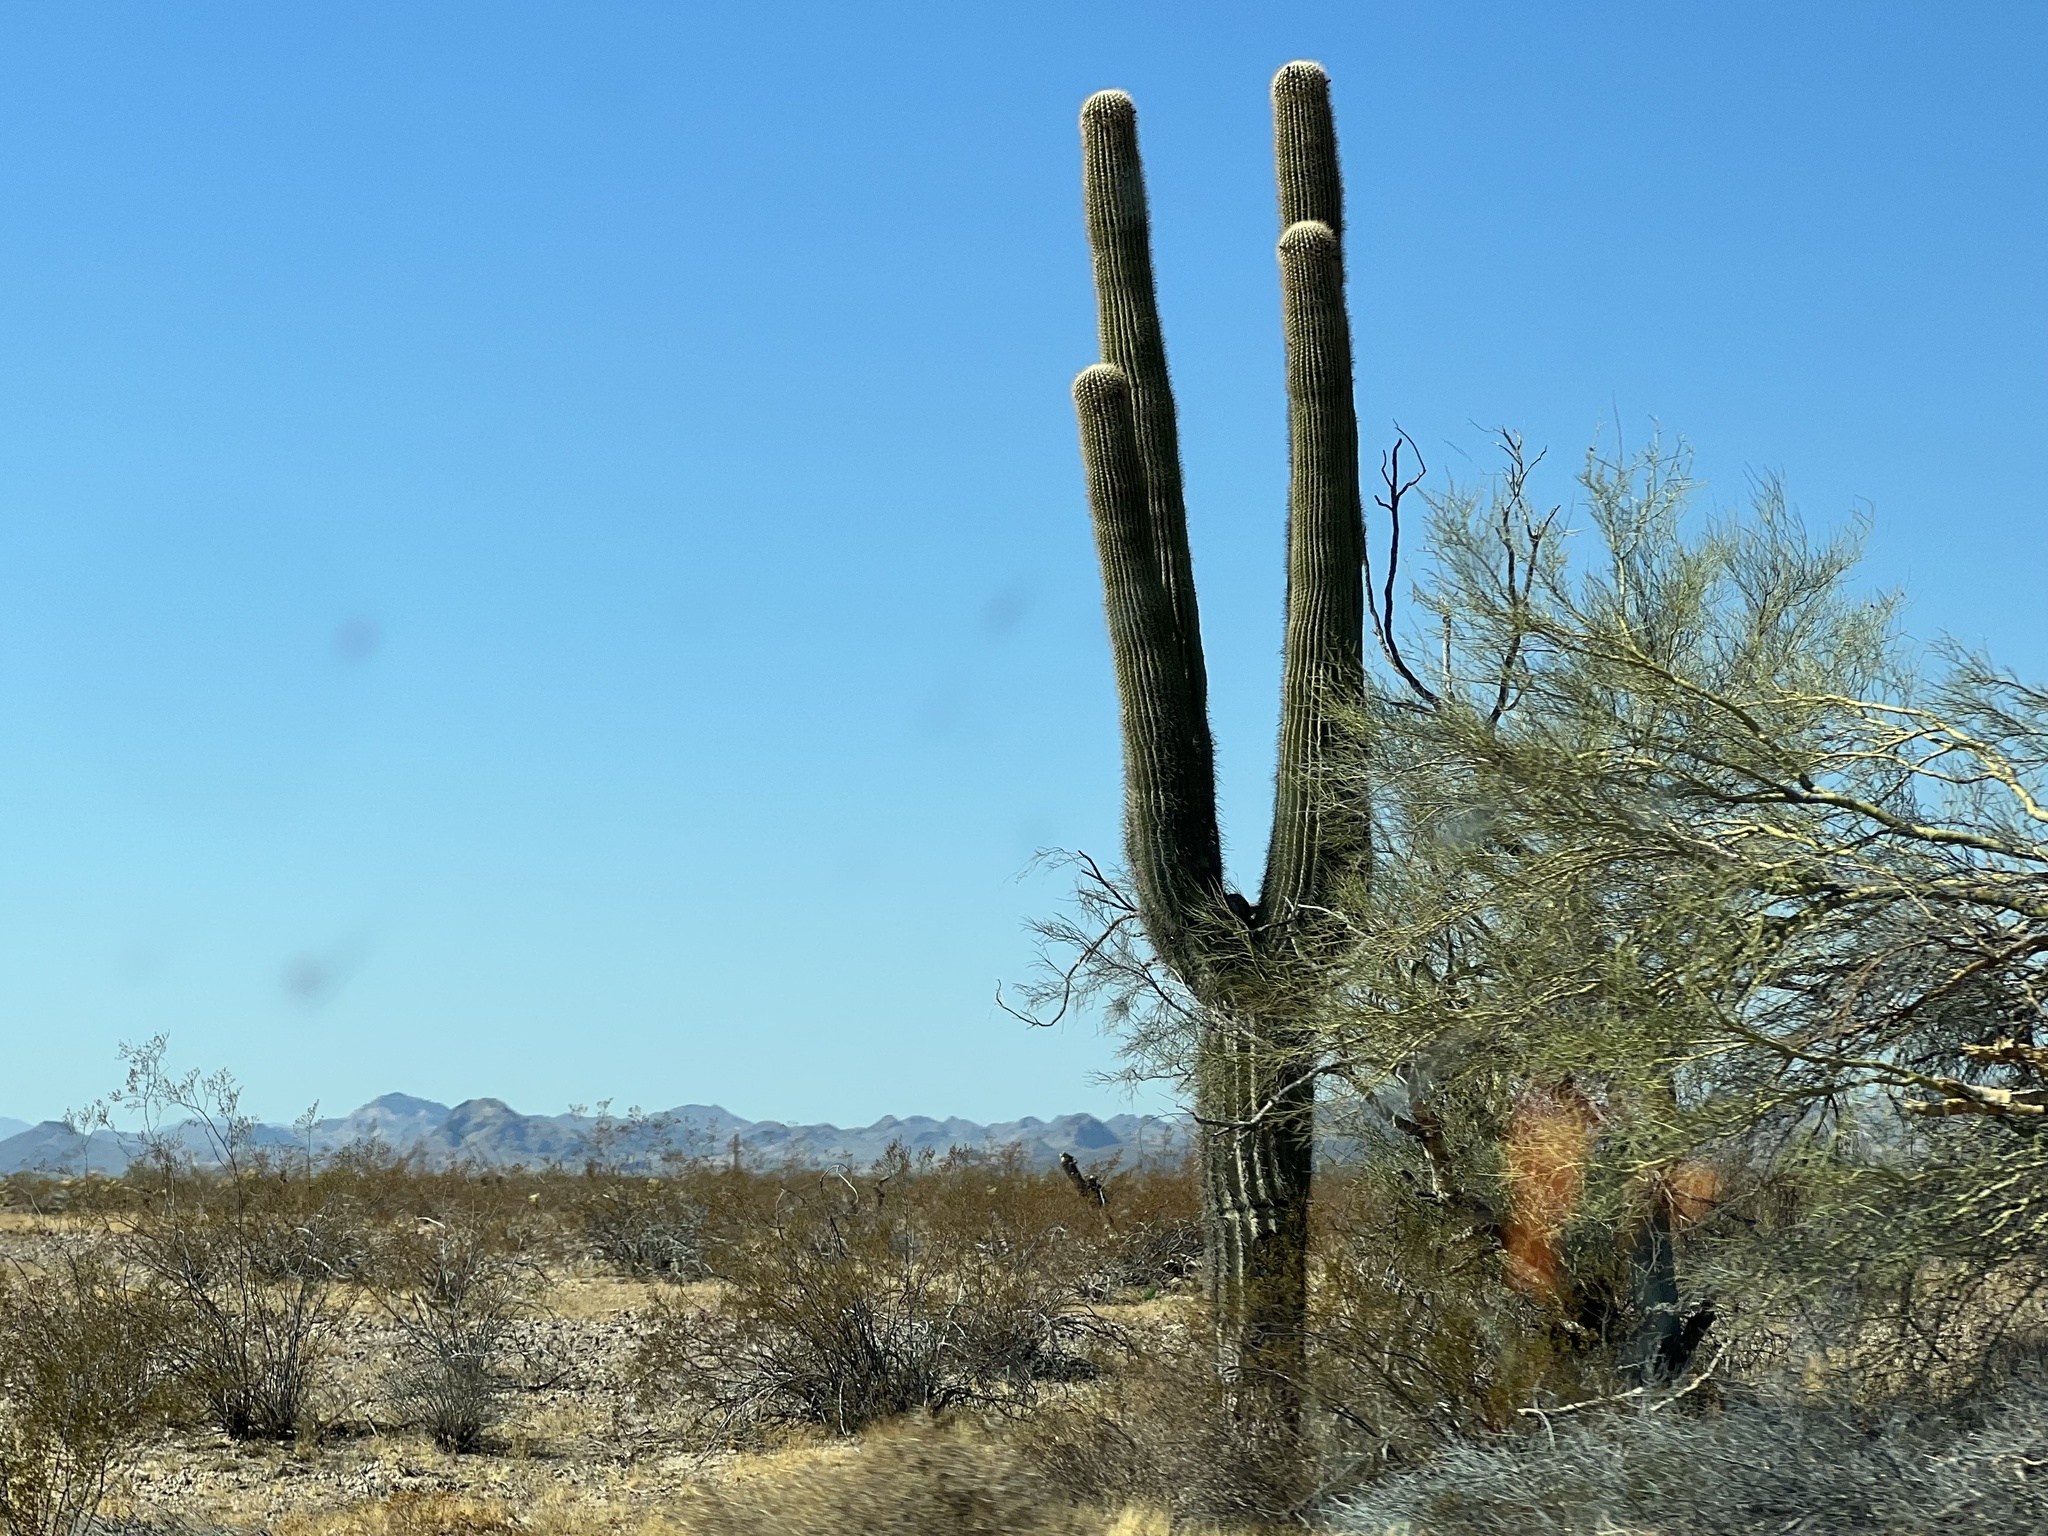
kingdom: Plantae
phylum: Tracheophyta
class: Magnoliopsida
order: Caryophyllales
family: Cactaceae
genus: Carnegiea
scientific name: Carnegiea gigantea
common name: Saguaro
